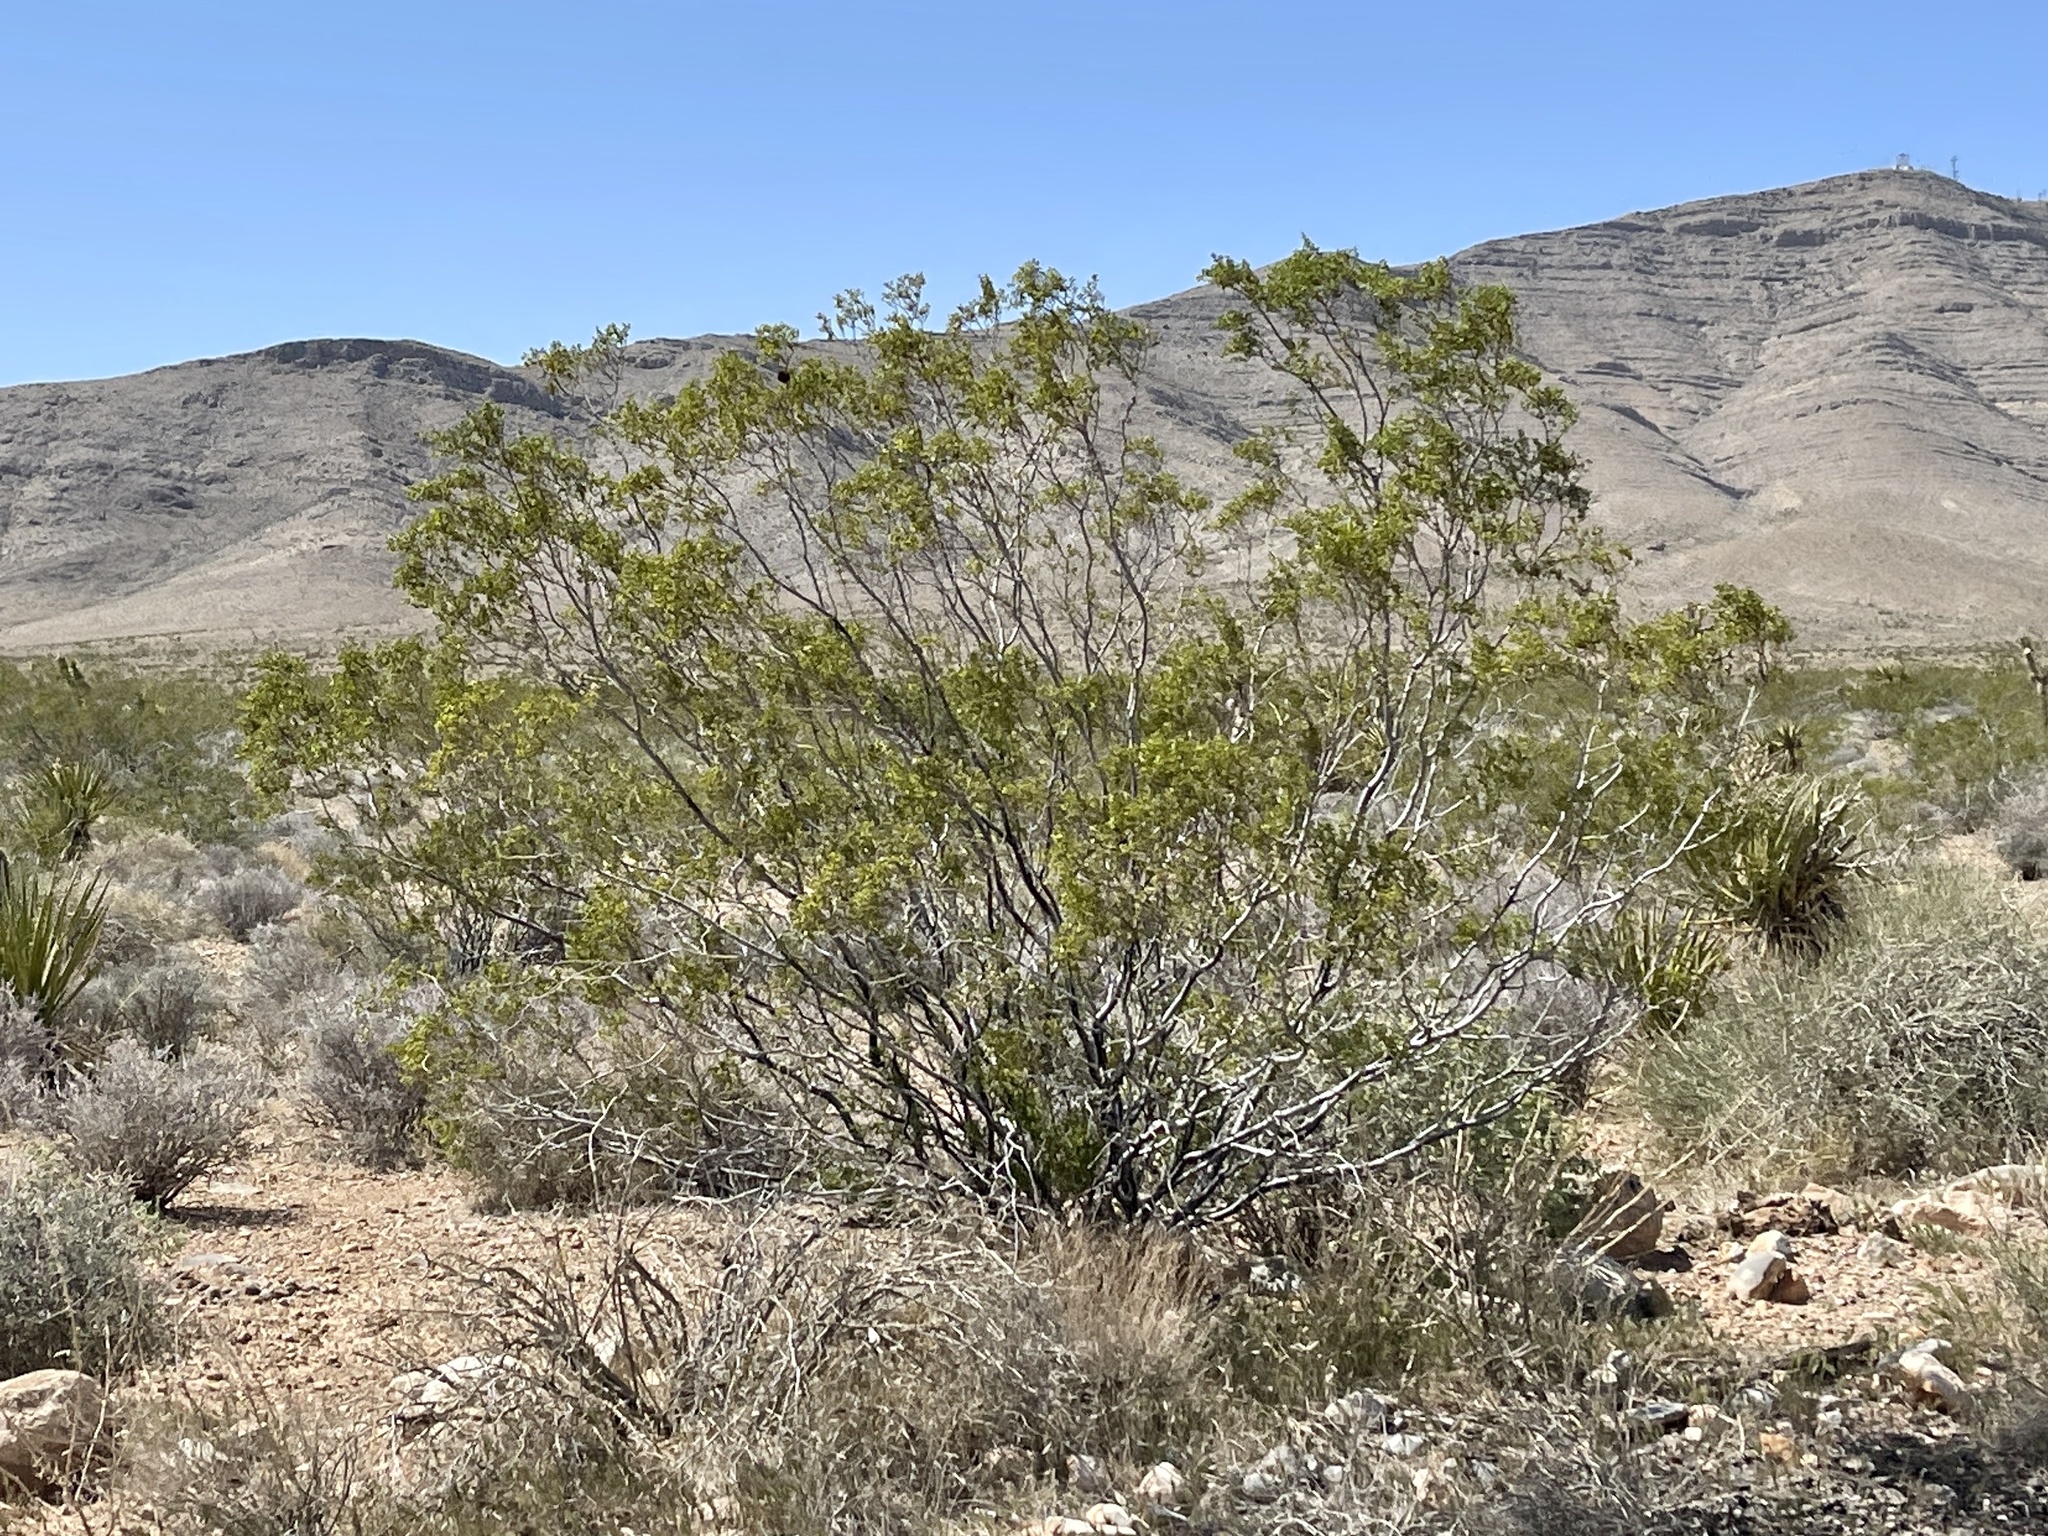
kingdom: Plantae
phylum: Tracheophyta
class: Magnoliopsida
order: Zygophyllales
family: Zygophyllaceae
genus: Larrea
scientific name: Larrea tridentata
